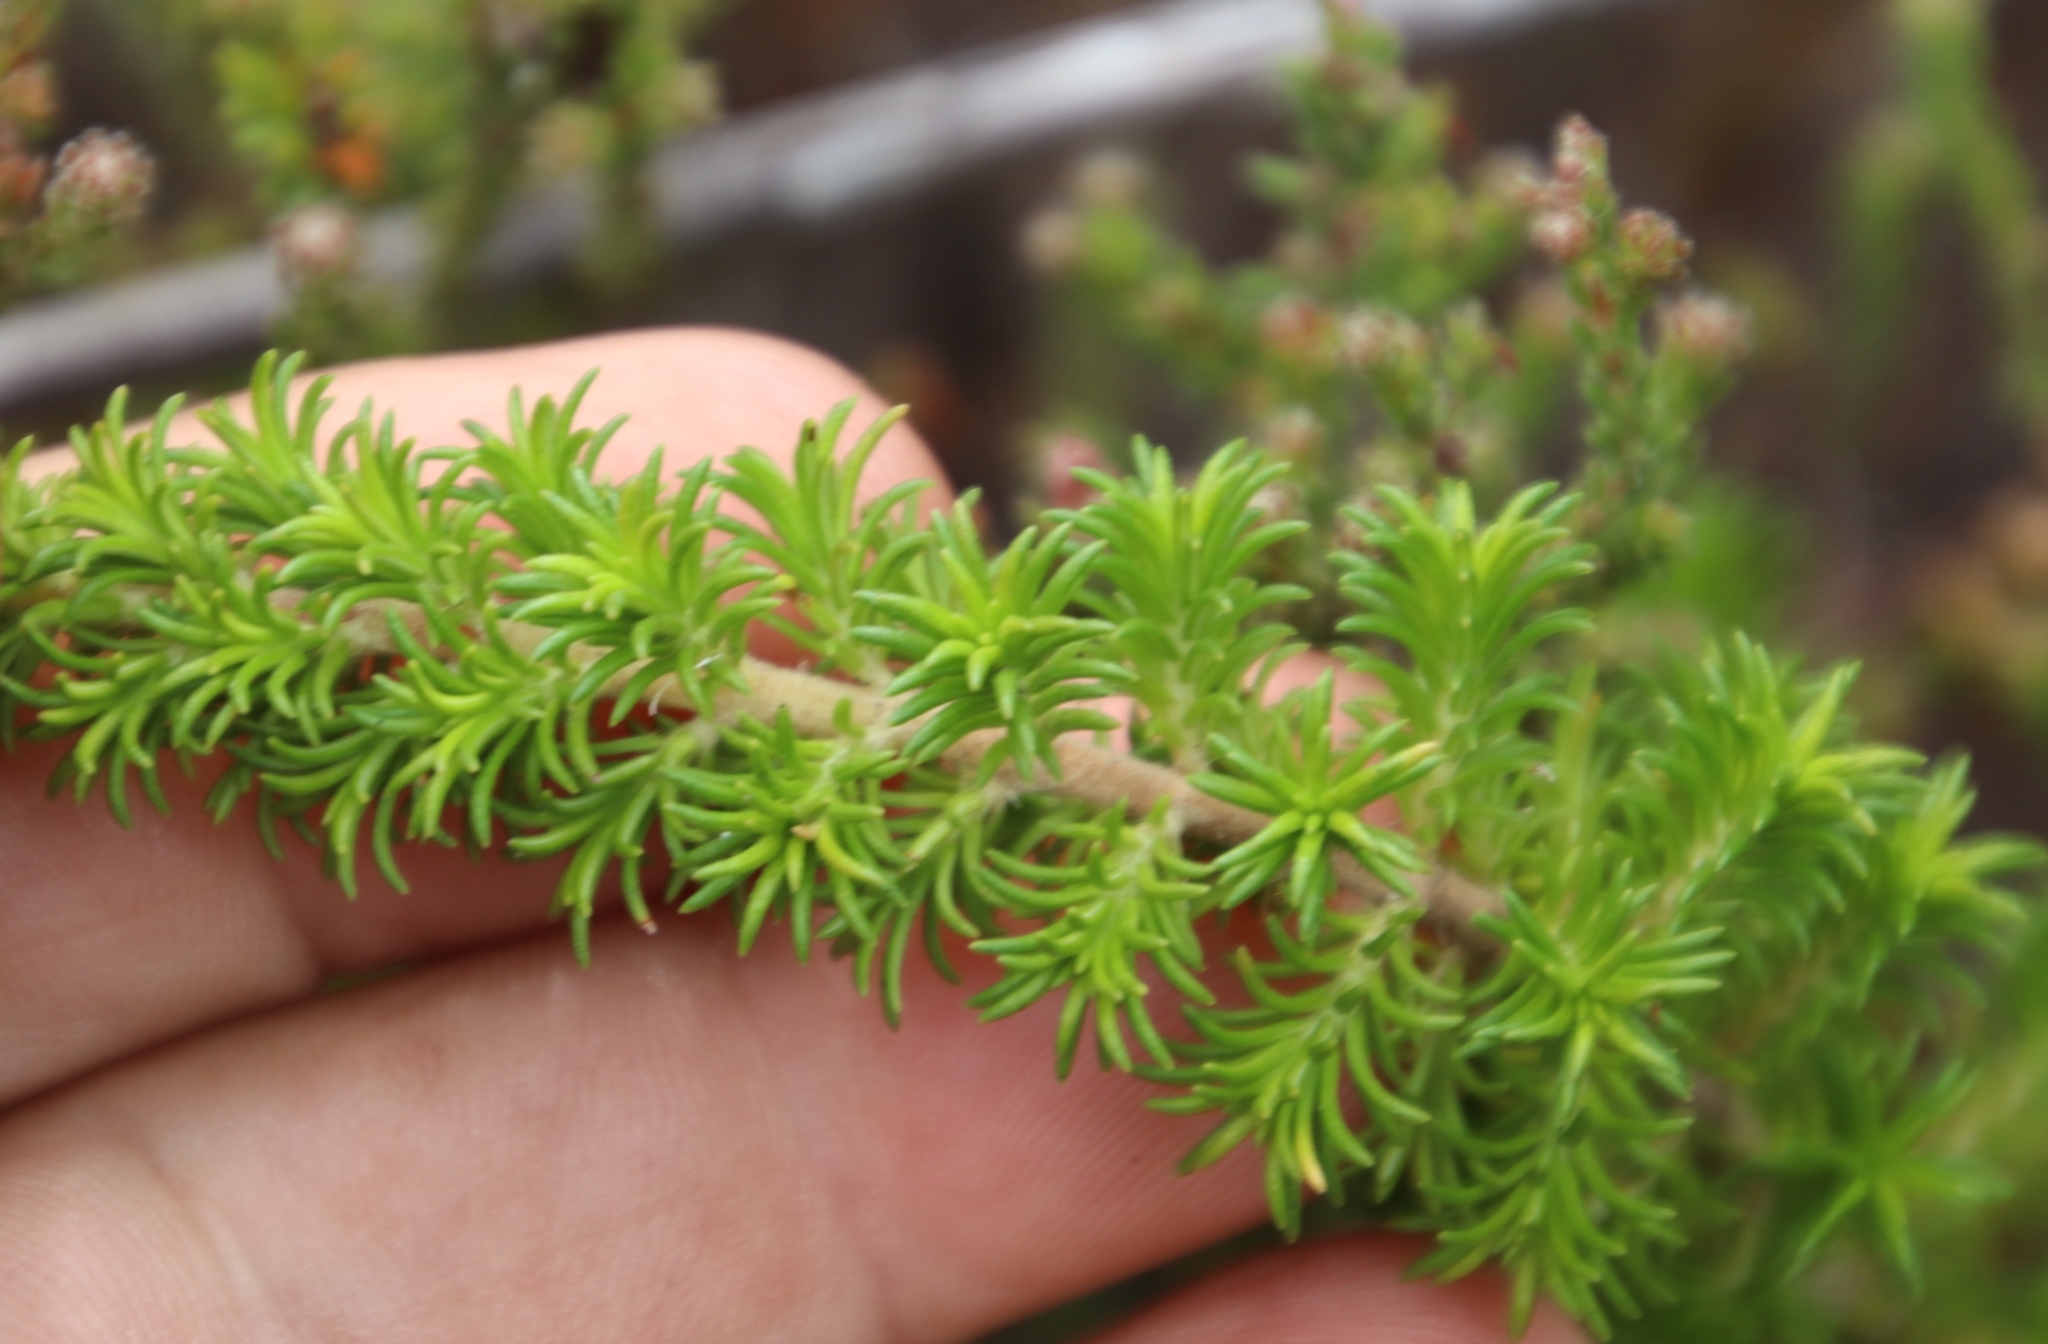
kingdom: Plantae
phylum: Tracheophyta
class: Magnoliopsida
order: Ericales
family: Ericaceae
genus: Erica
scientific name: Erica coccinea
